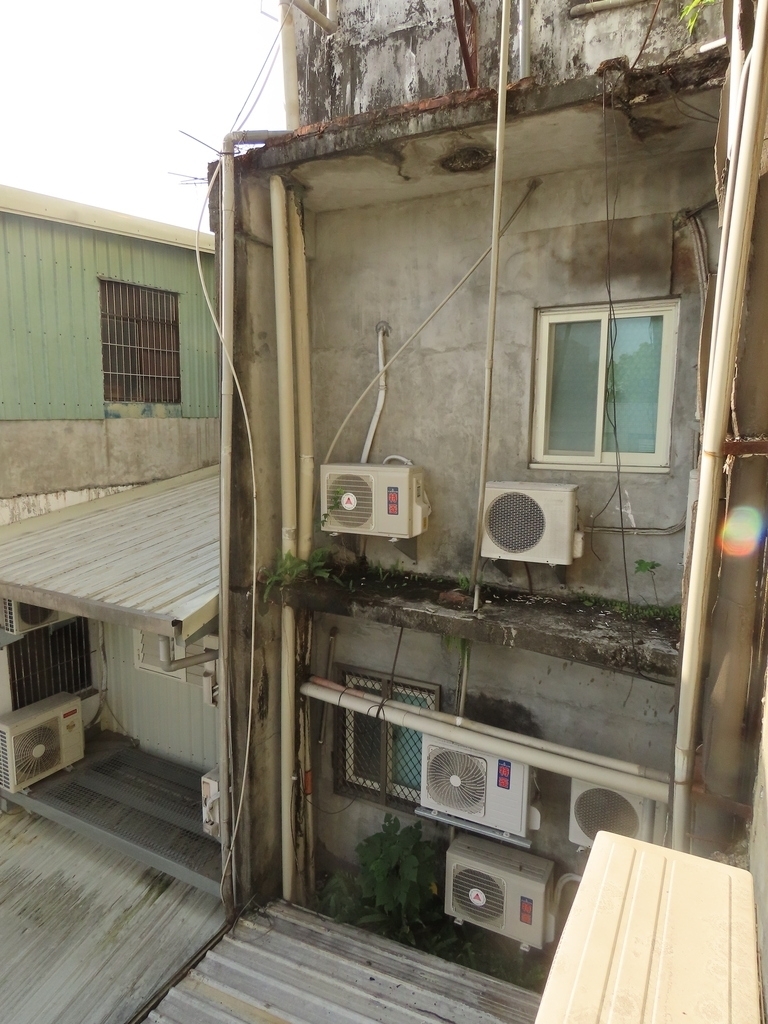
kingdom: Plantae
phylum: Tracheophyta
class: Polypodiopsida
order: Polypodiales
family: Polypodiaceae
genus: Pyrrosia
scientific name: Pyrrosia lanceolata
